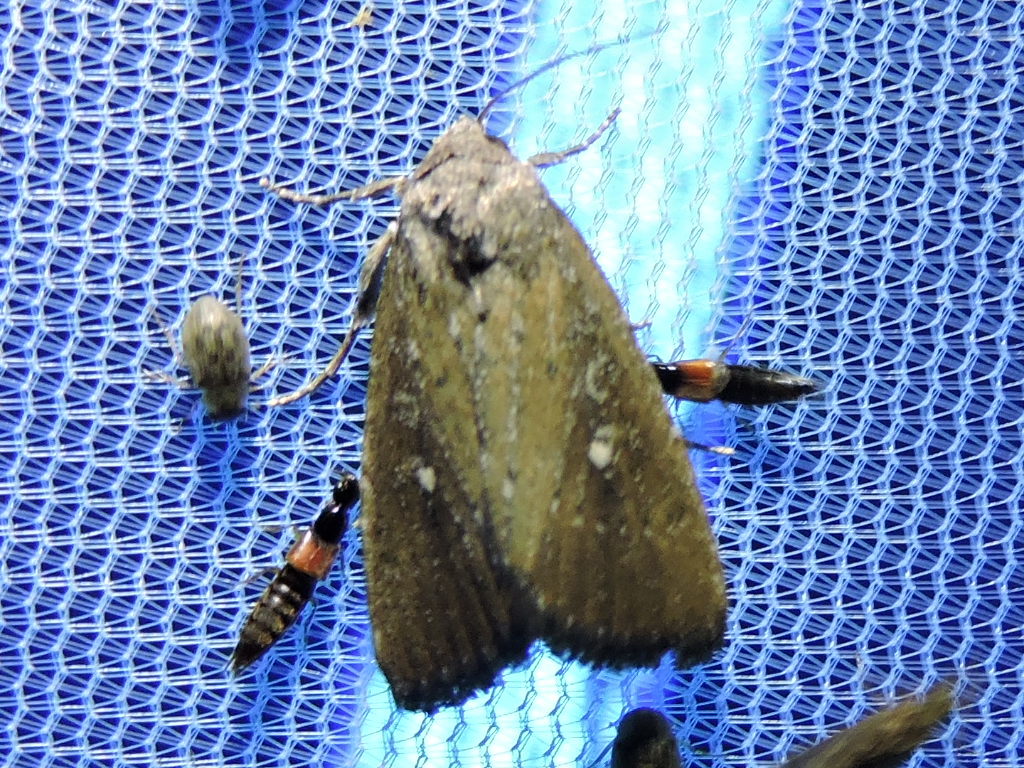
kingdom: Animalia
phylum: Arthropoda
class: Insecta
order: Lepidoptera
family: Noctuidae
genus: Condica
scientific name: Condica videns
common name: White-dotted groundling
